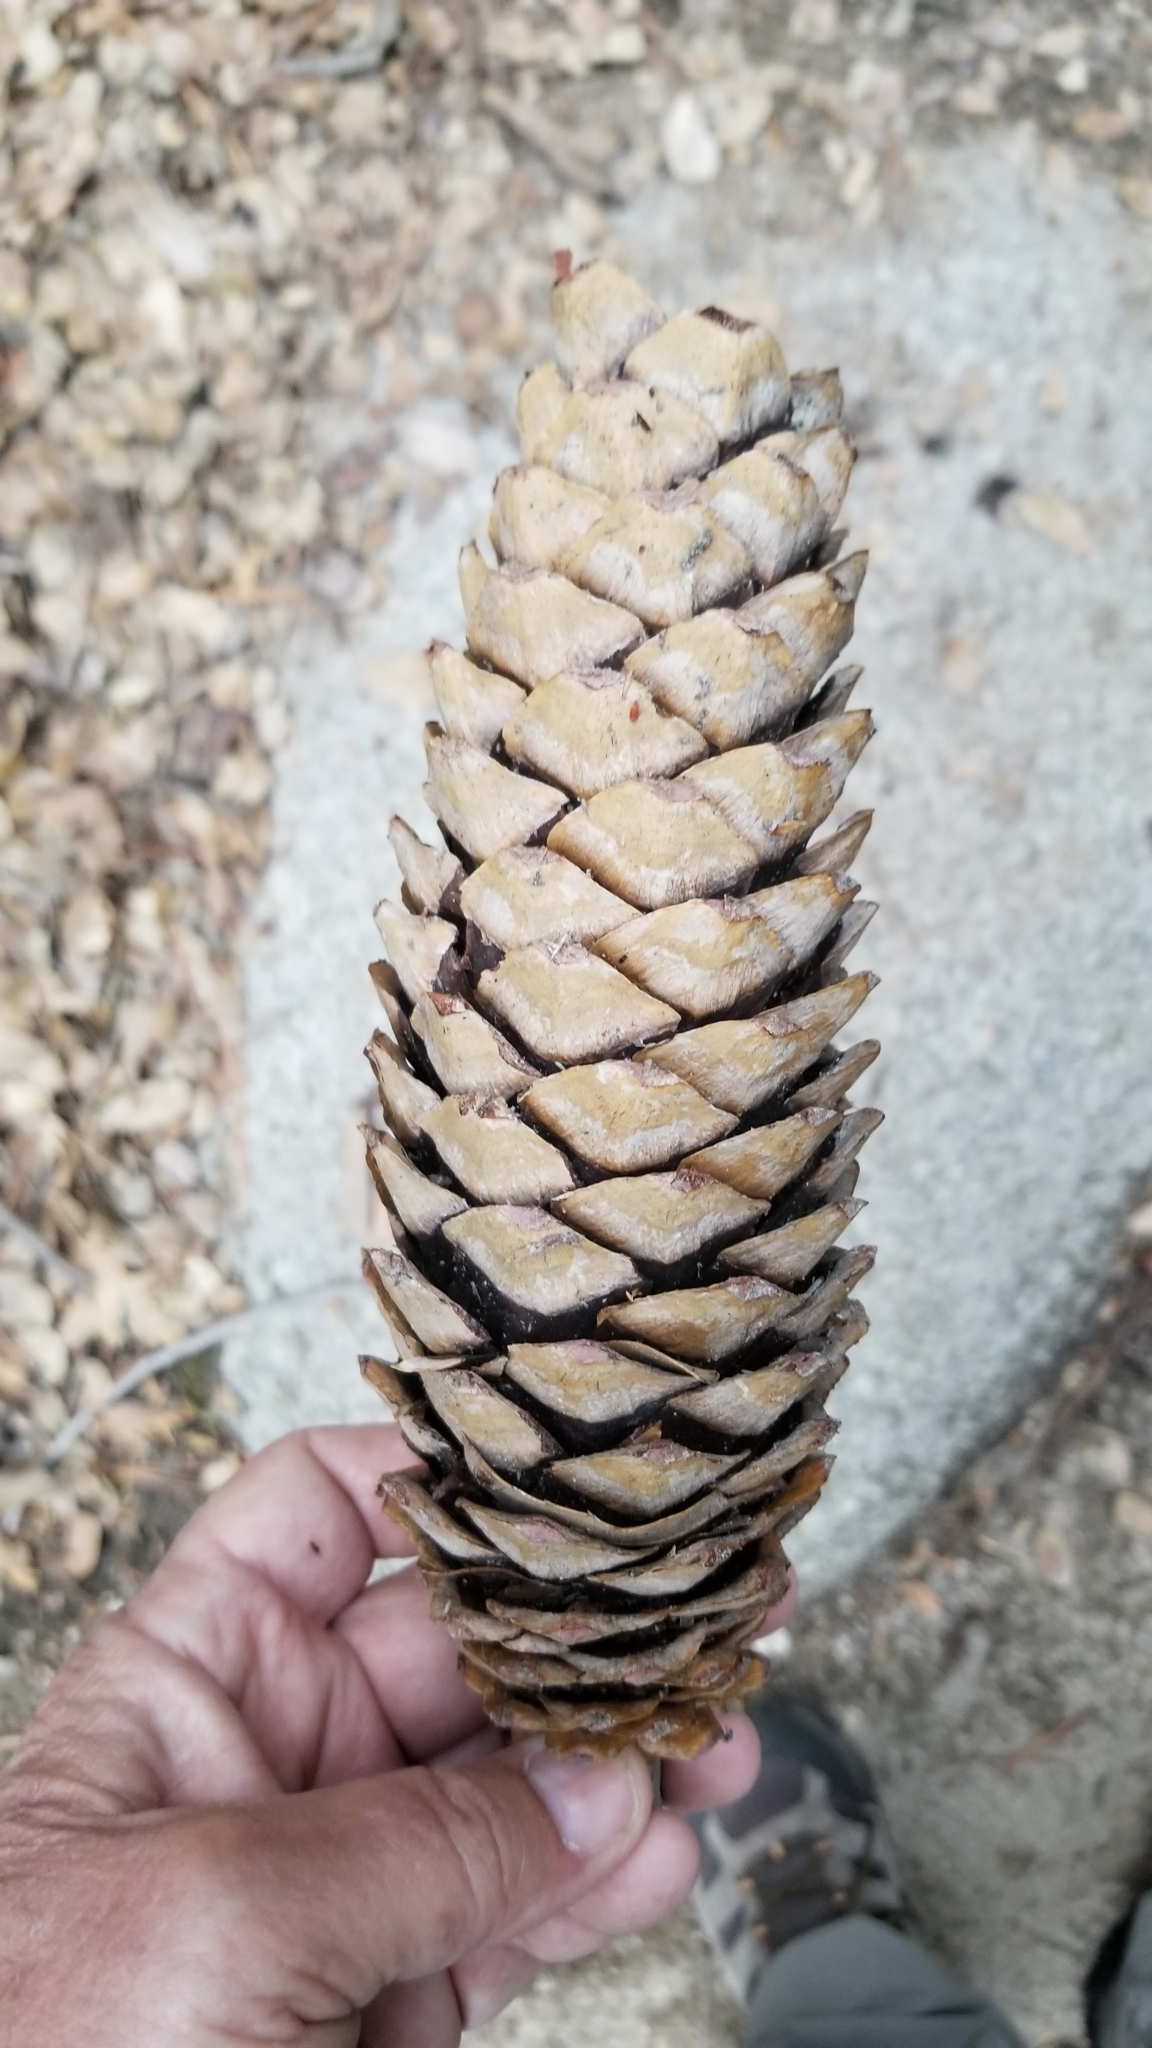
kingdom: Plantae
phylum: Tracheophyta
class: Pinopsida
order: Pinales
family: Pinaceae
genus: Pinus
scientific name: Pinus lambertiana
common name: Sugar pine
